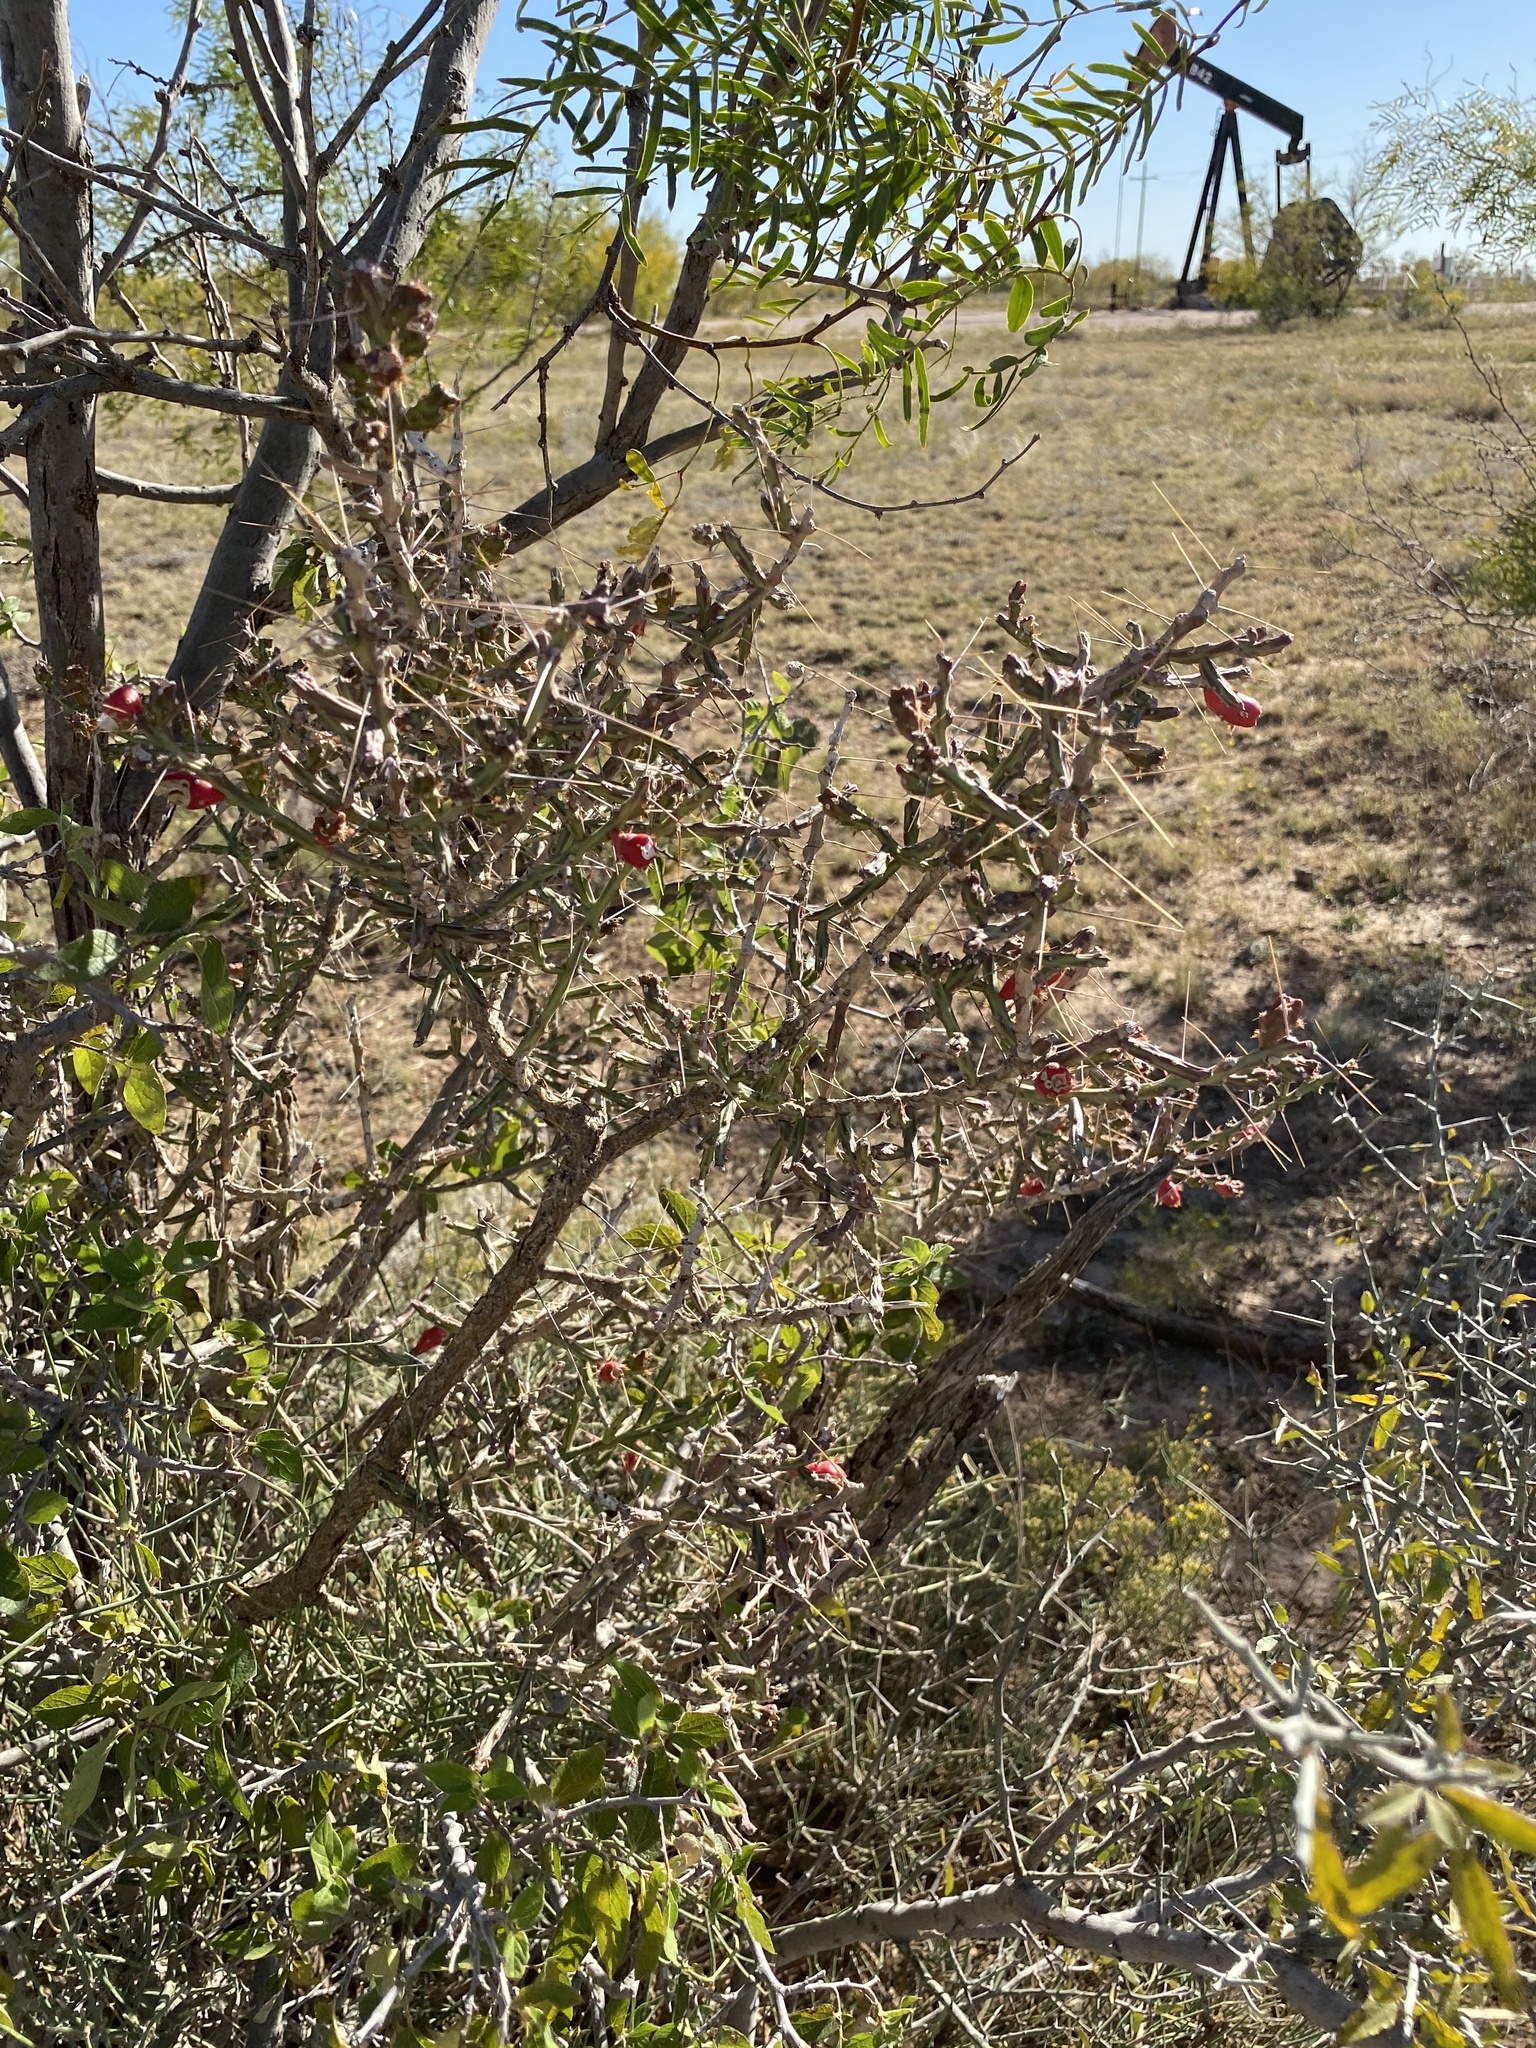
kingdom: Plantae
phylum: Tracheophyta
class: Magnoliopsida
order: Caryophyllales
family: Cactaceae
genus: Cylindropuntia
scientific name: Cylindropuntia leptocaulis
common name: Christmas cactus
